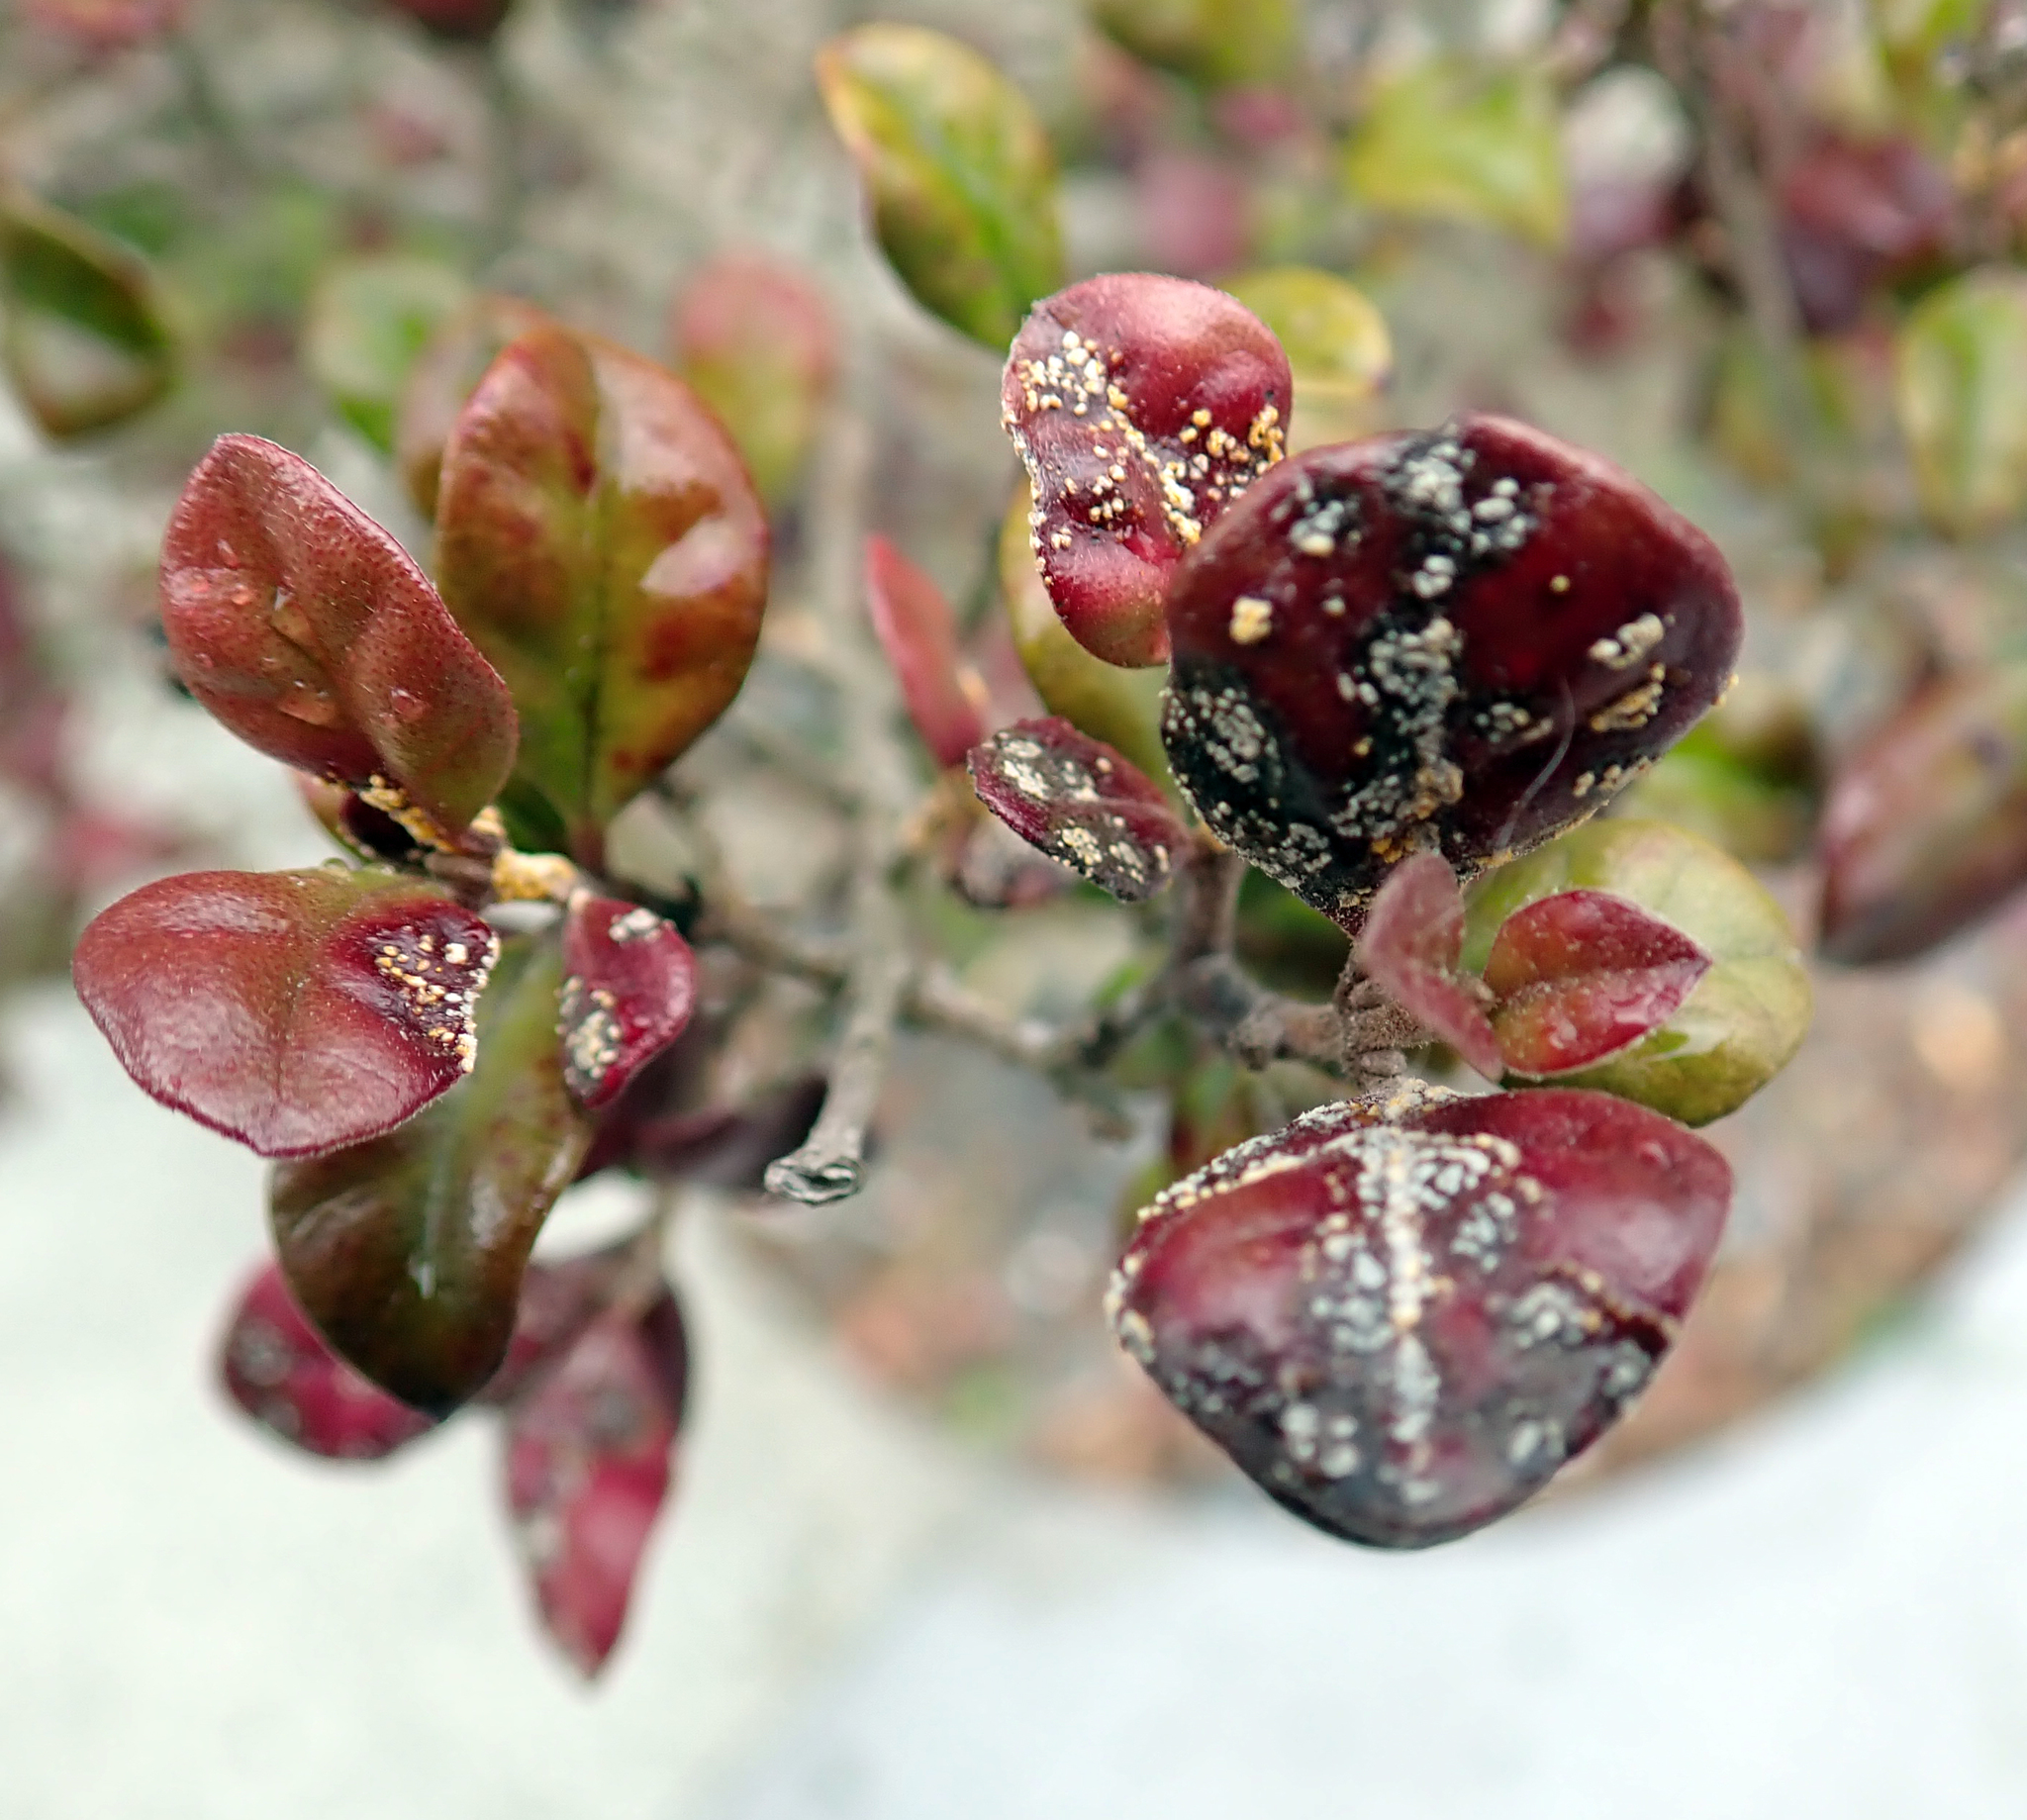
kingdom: Fungi
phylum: Basidiomycota
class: Pucciniomycetes
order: Pucciniales
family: Sphaerophragmiaceae
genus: Austropuccinia
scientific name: Austropuccinia psidii
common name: Myrtle rust
